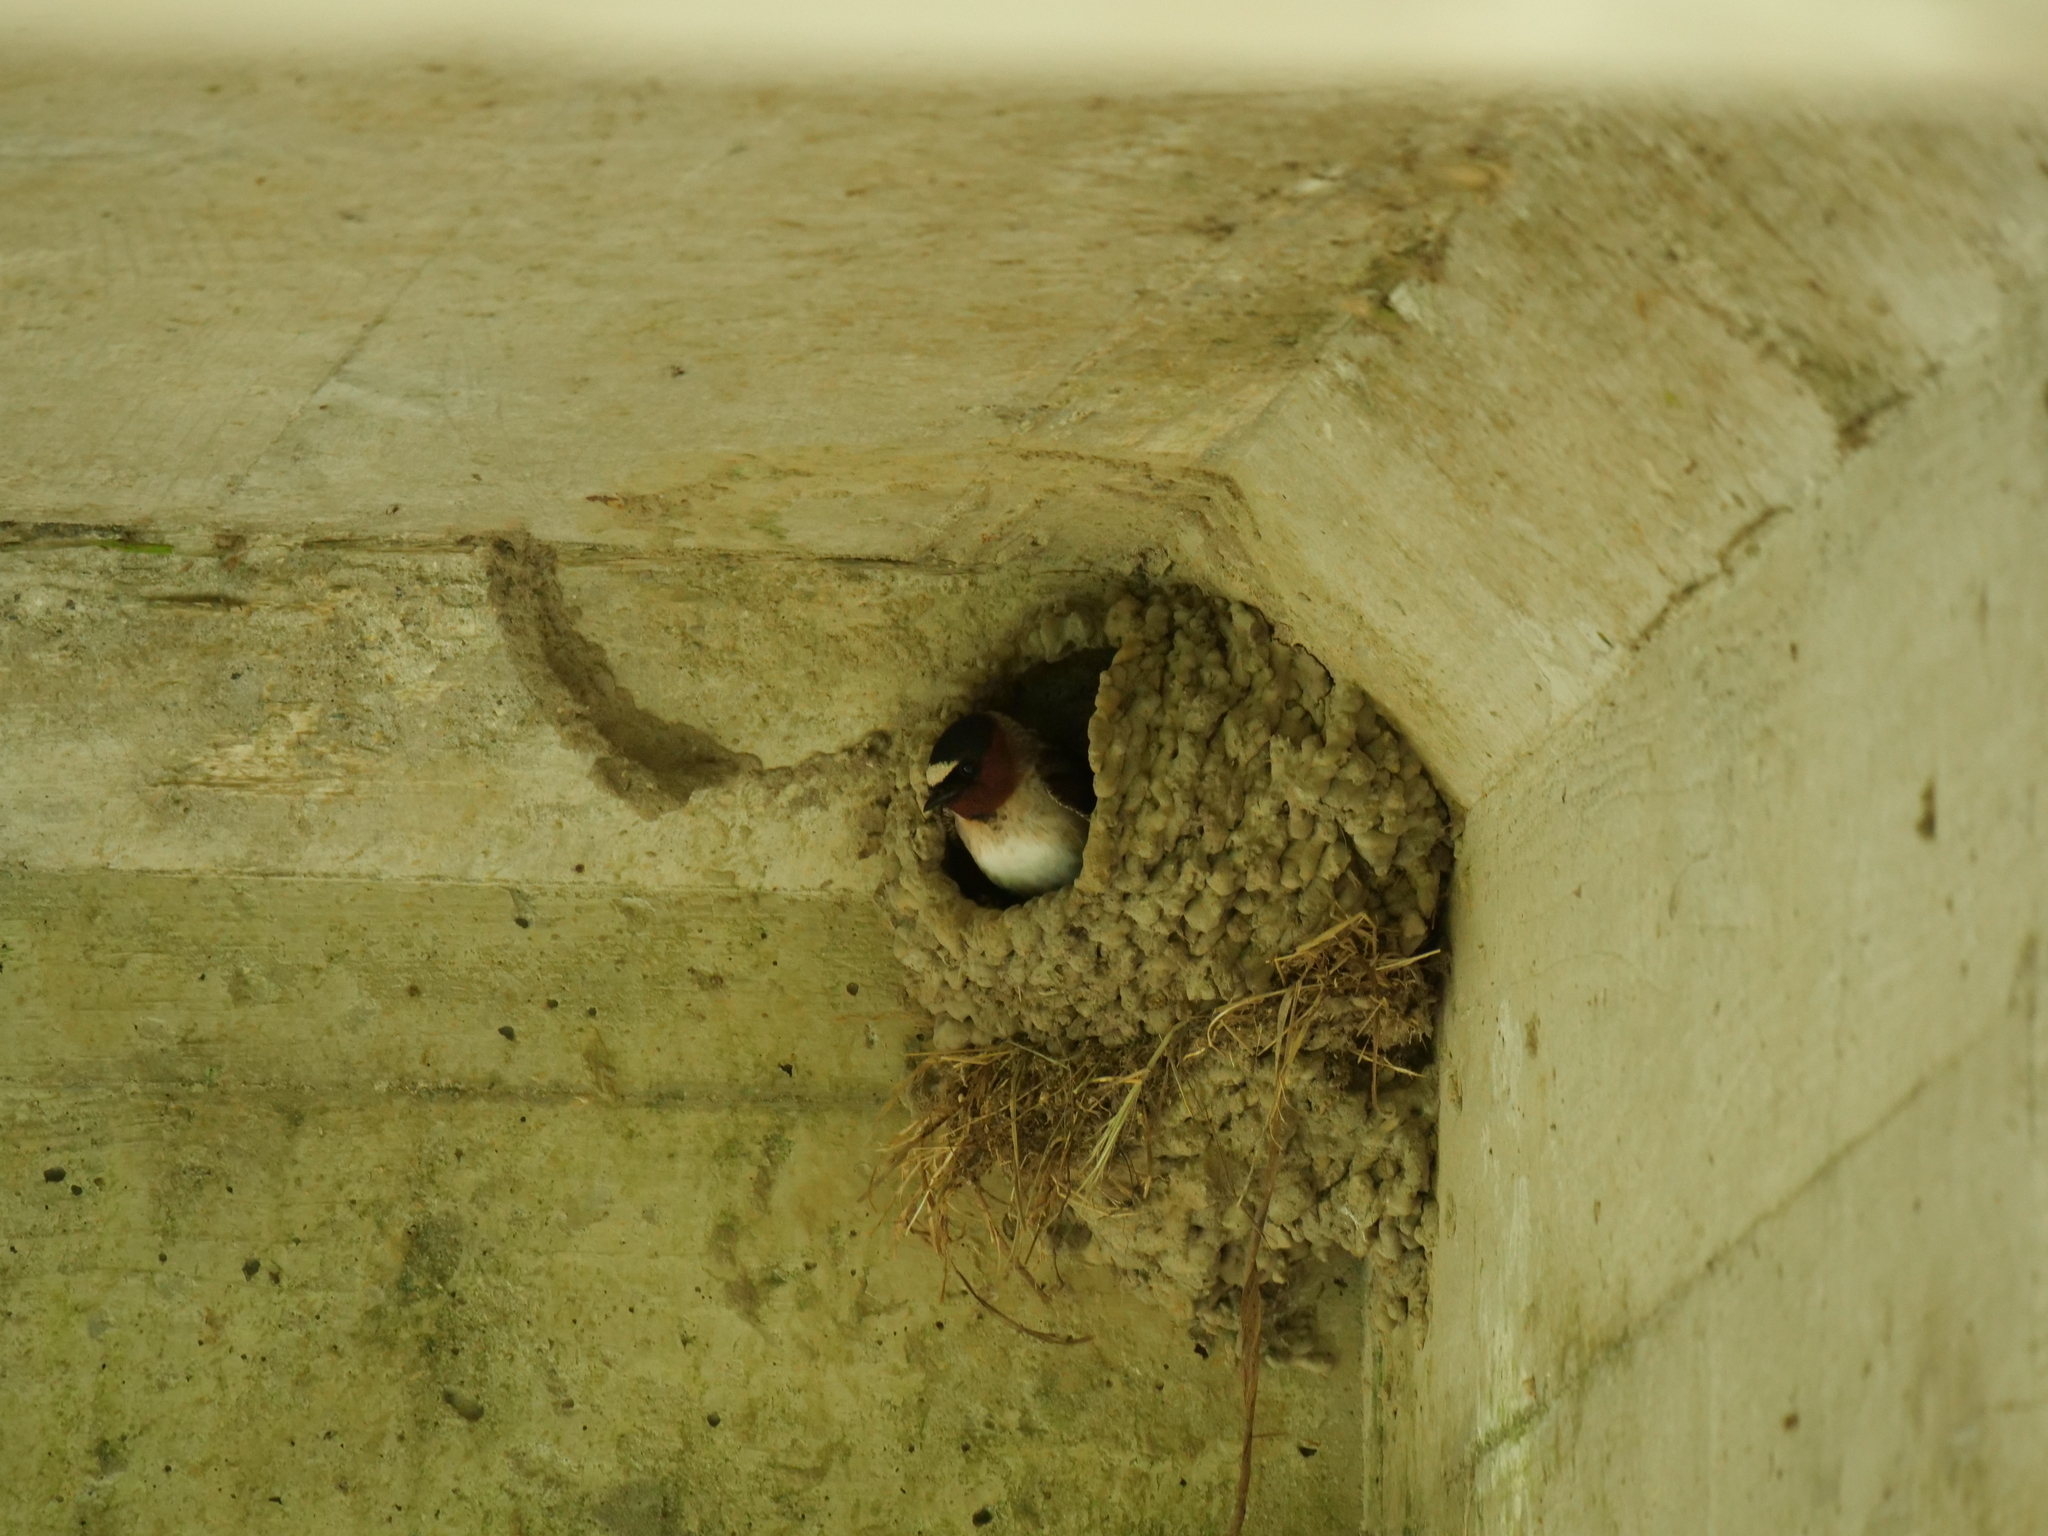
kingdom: Animalia
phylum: Chordata
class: Aves
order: Passeriformes
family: Hirundinidae
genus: Petrochelidon
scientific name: Petrochelidon pyrrhonota
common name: American cliff swallow
